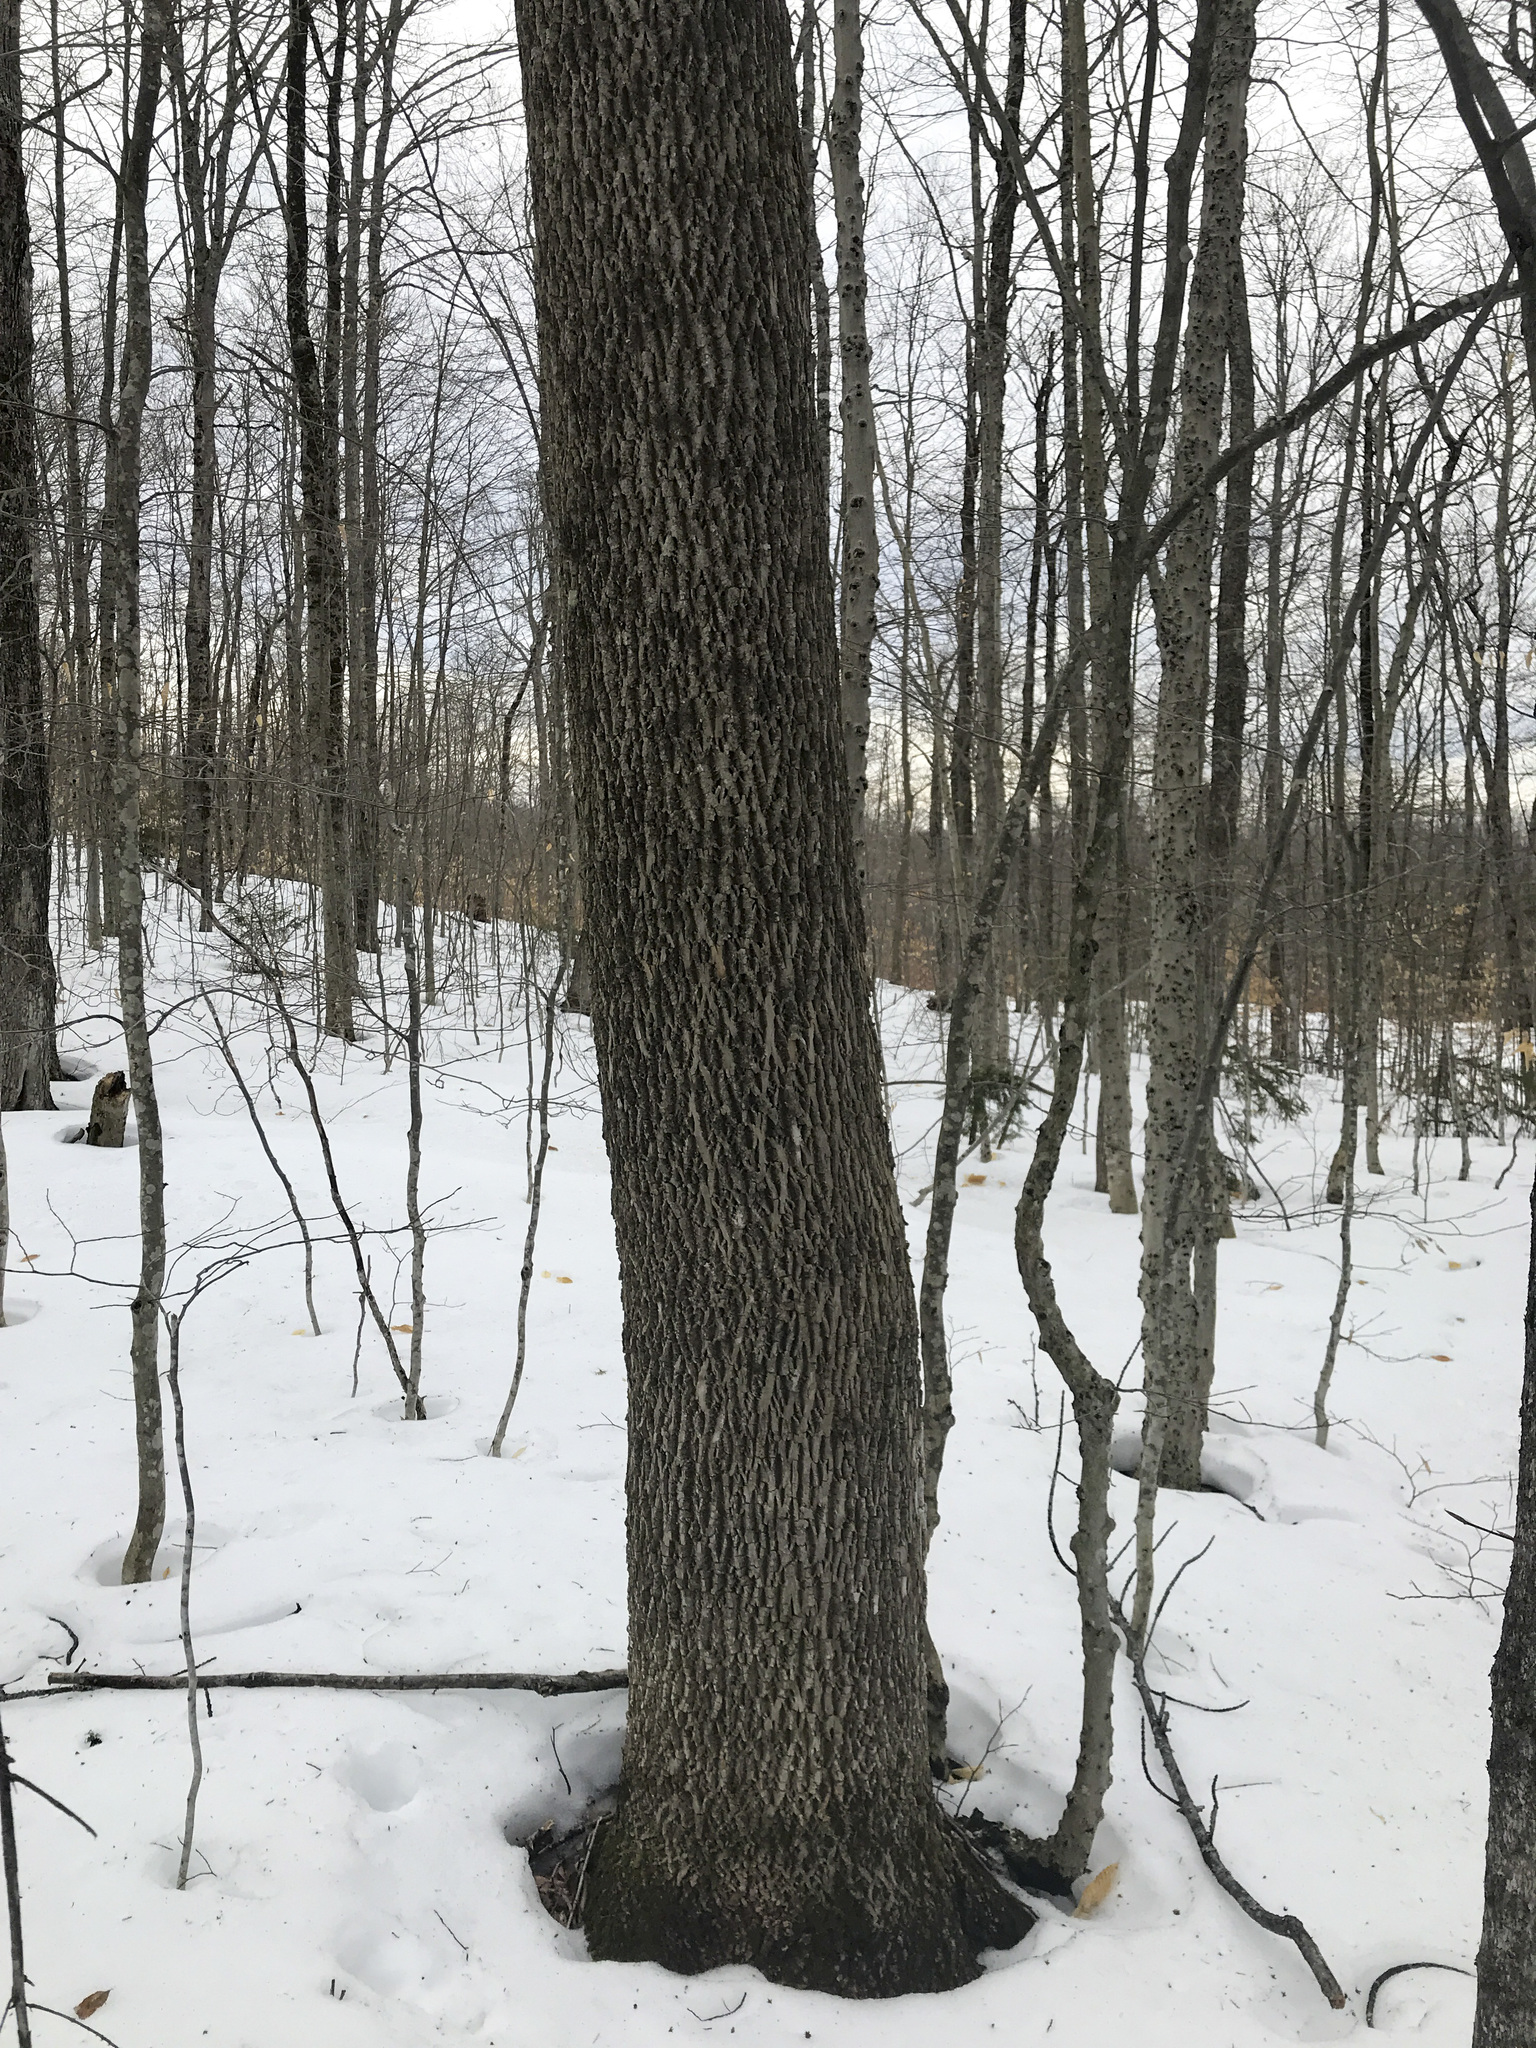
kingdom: Plantae
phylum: Tracheophyta
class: Magnoliopsida
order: Lamiales
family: Oleaceae
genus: Fraxinus
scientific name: Fraxinus americana
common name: White ash
